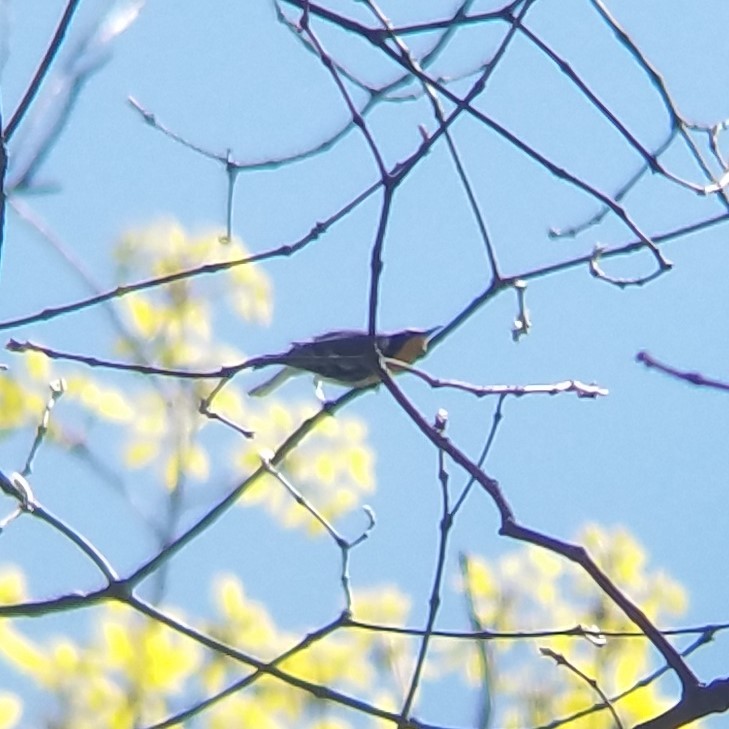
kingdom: Animalia
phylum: Chordata
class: Aves
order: Passeriformes
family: Parulidae
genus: Setophaga
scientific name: Setophaga dominica
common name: Yellow-throated warbler
